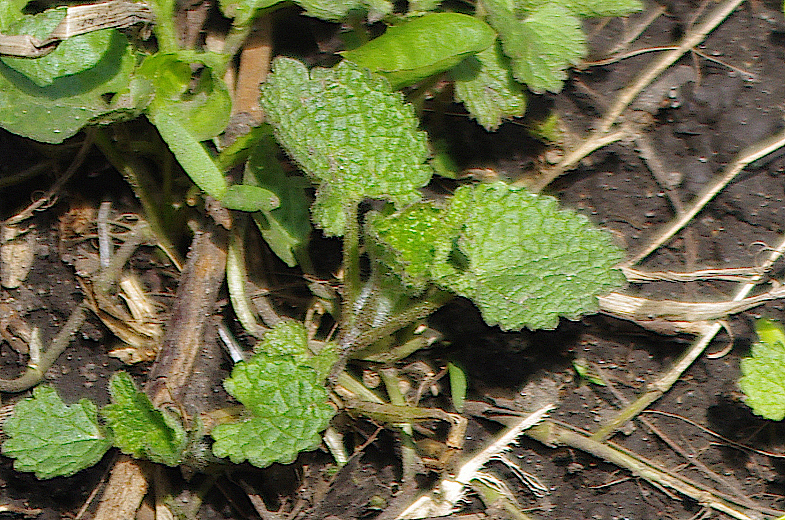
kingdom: Plantae
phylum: Tracheophyta
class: Magnoliopsida
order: Lamiales
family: Lamiaceae
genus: Lamium
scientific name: Lamium album
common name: White dead-nettle
